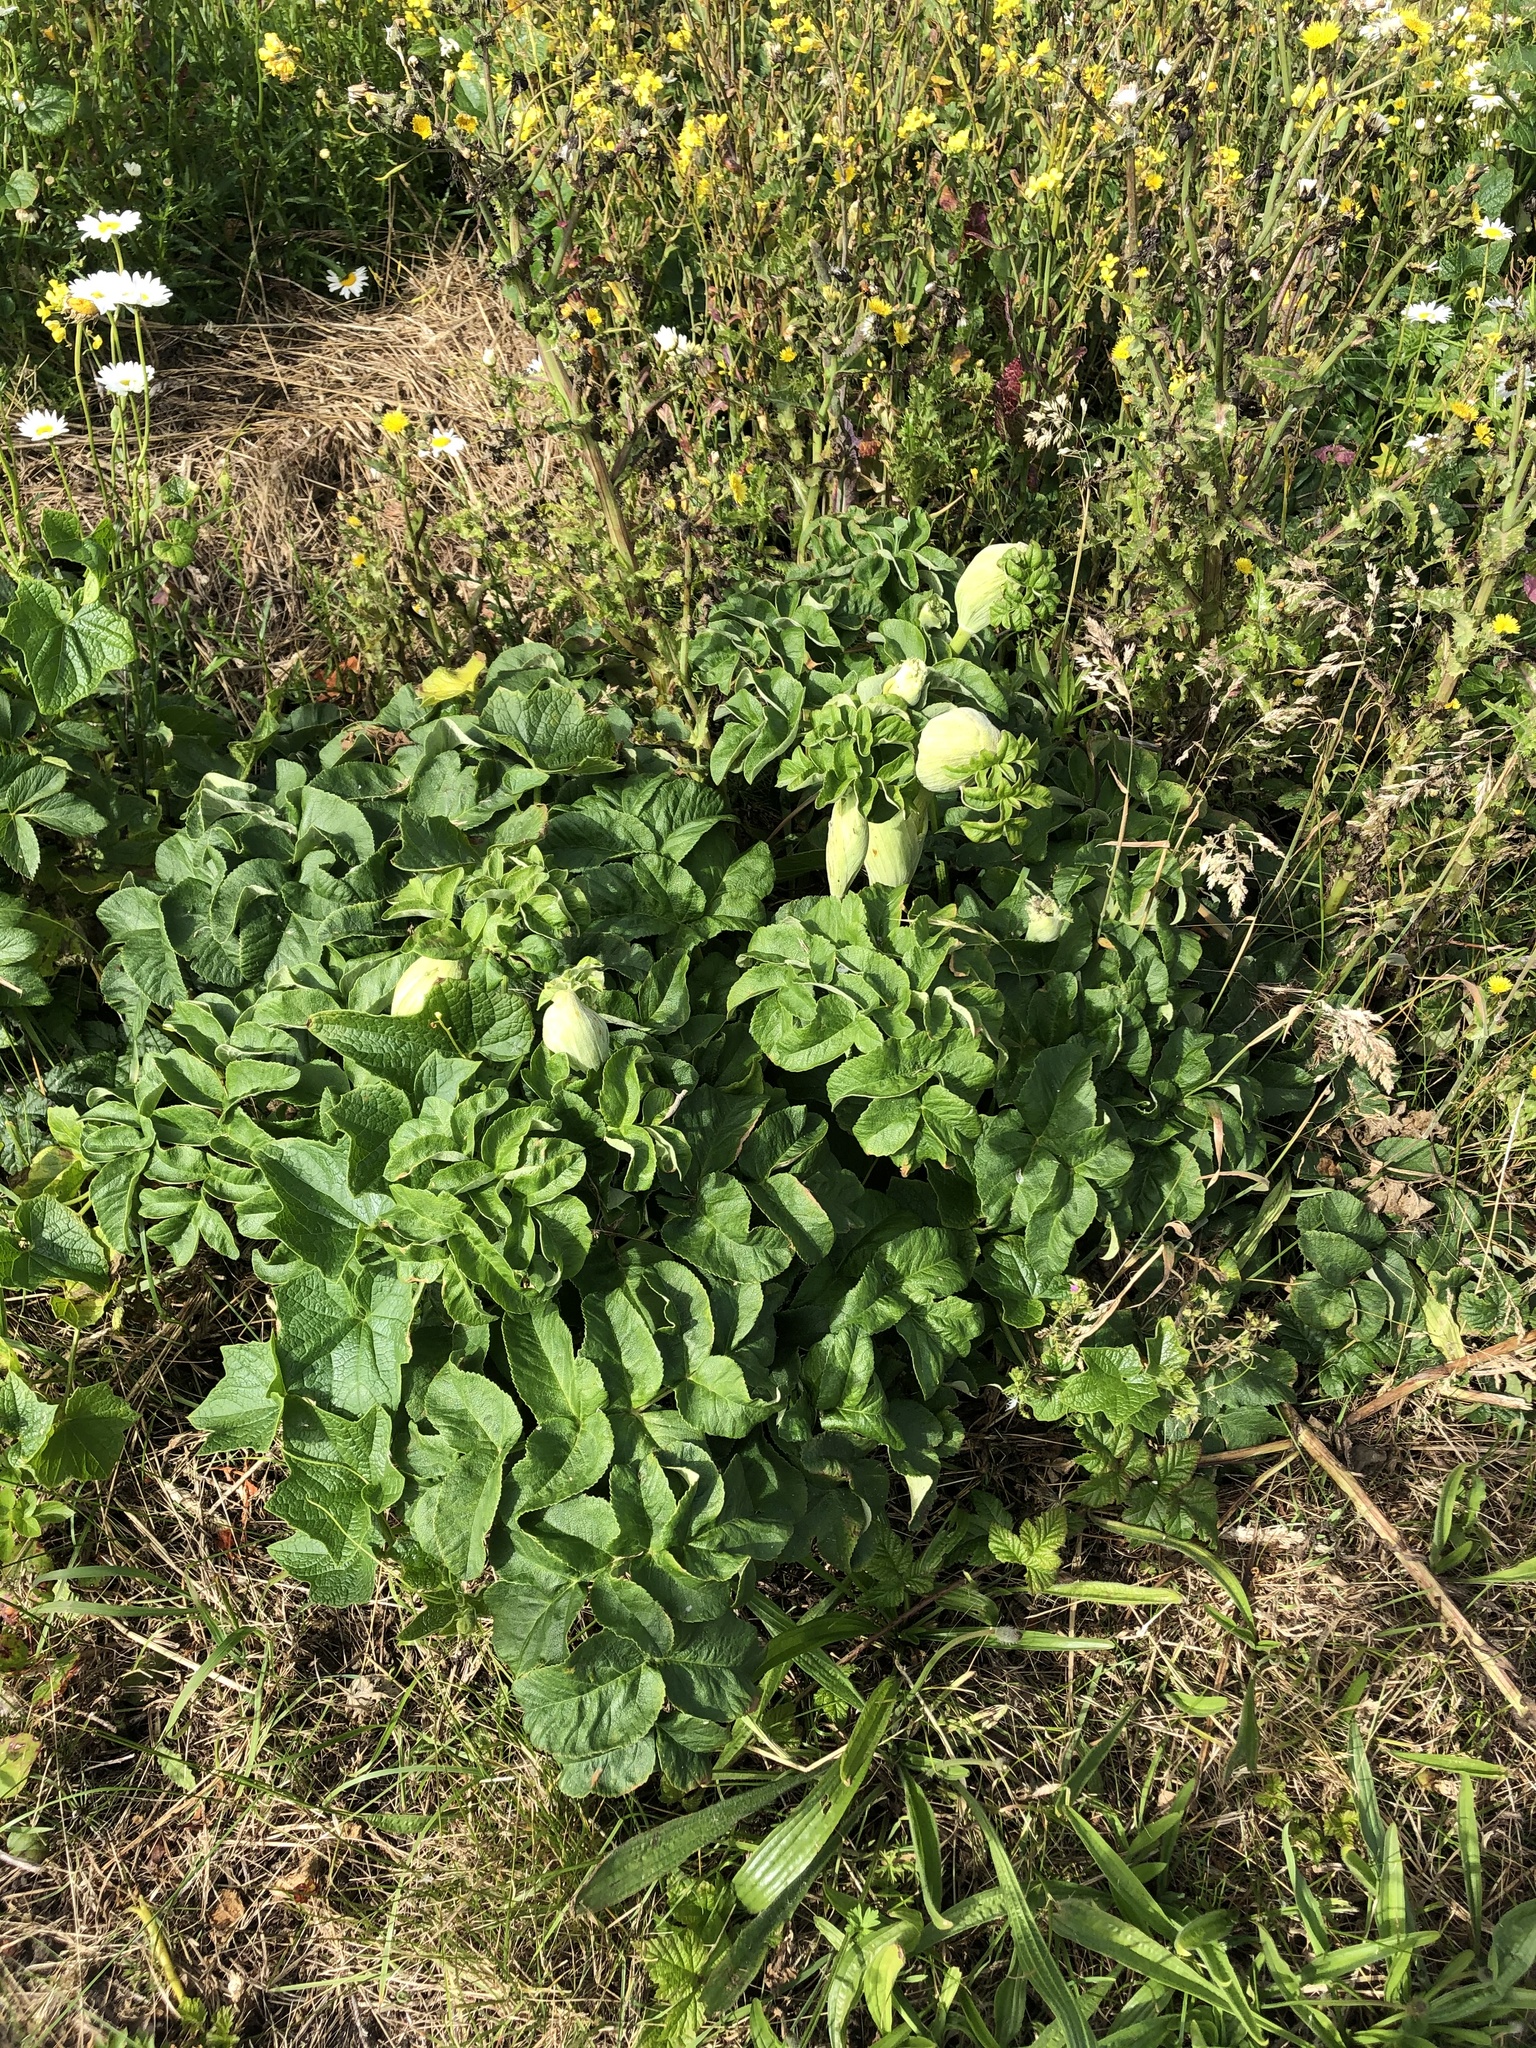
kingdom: Plantae
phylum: Tracheophyta
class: Magnoliopsida
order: Apiales
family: Apiaceae
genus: Angelica
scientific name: Angelica hendersonii
